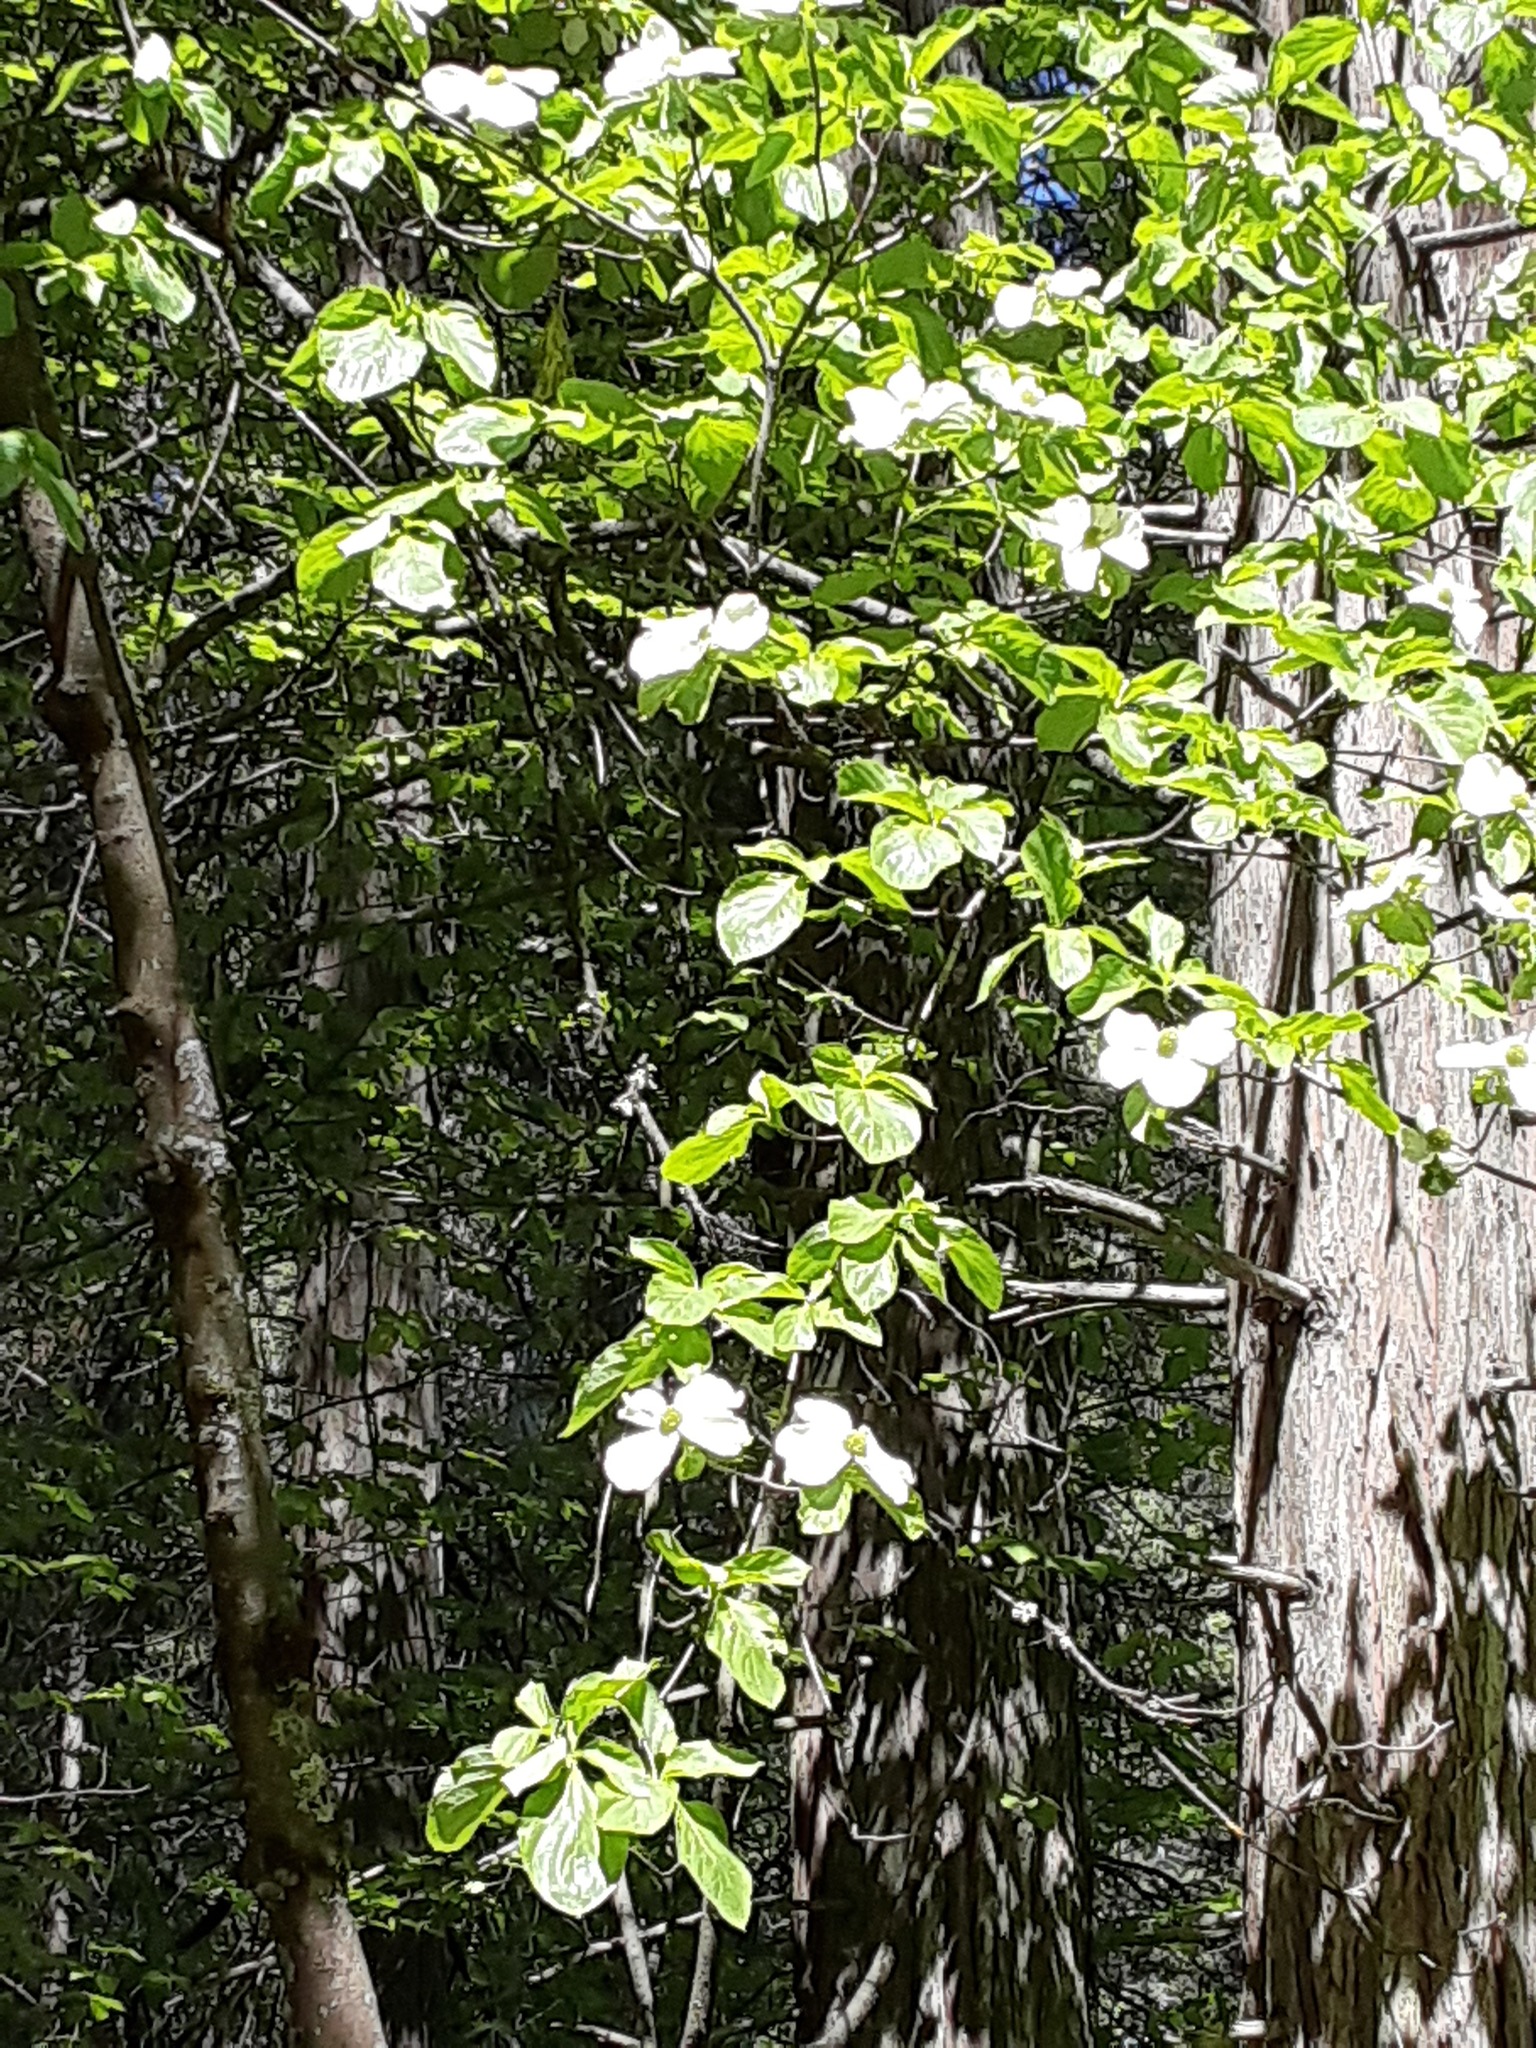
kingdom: Plantae
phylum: Tracheophyta
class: Magnoliopsida
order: Cornales
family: Cornaceae
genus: Cornus
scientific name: Cornus nuttallii
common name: Pacific dogwood
